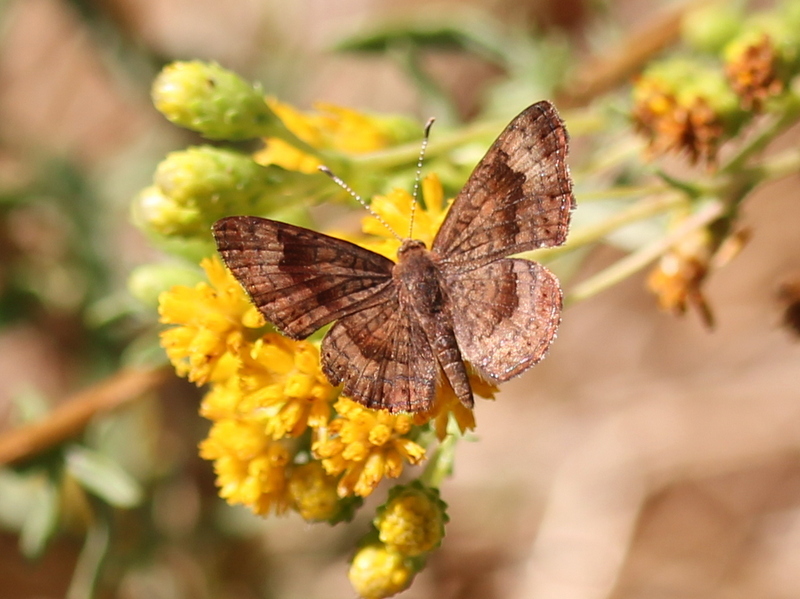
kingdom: Animalia
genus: Calephelis
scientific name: Calephelis nemesis
